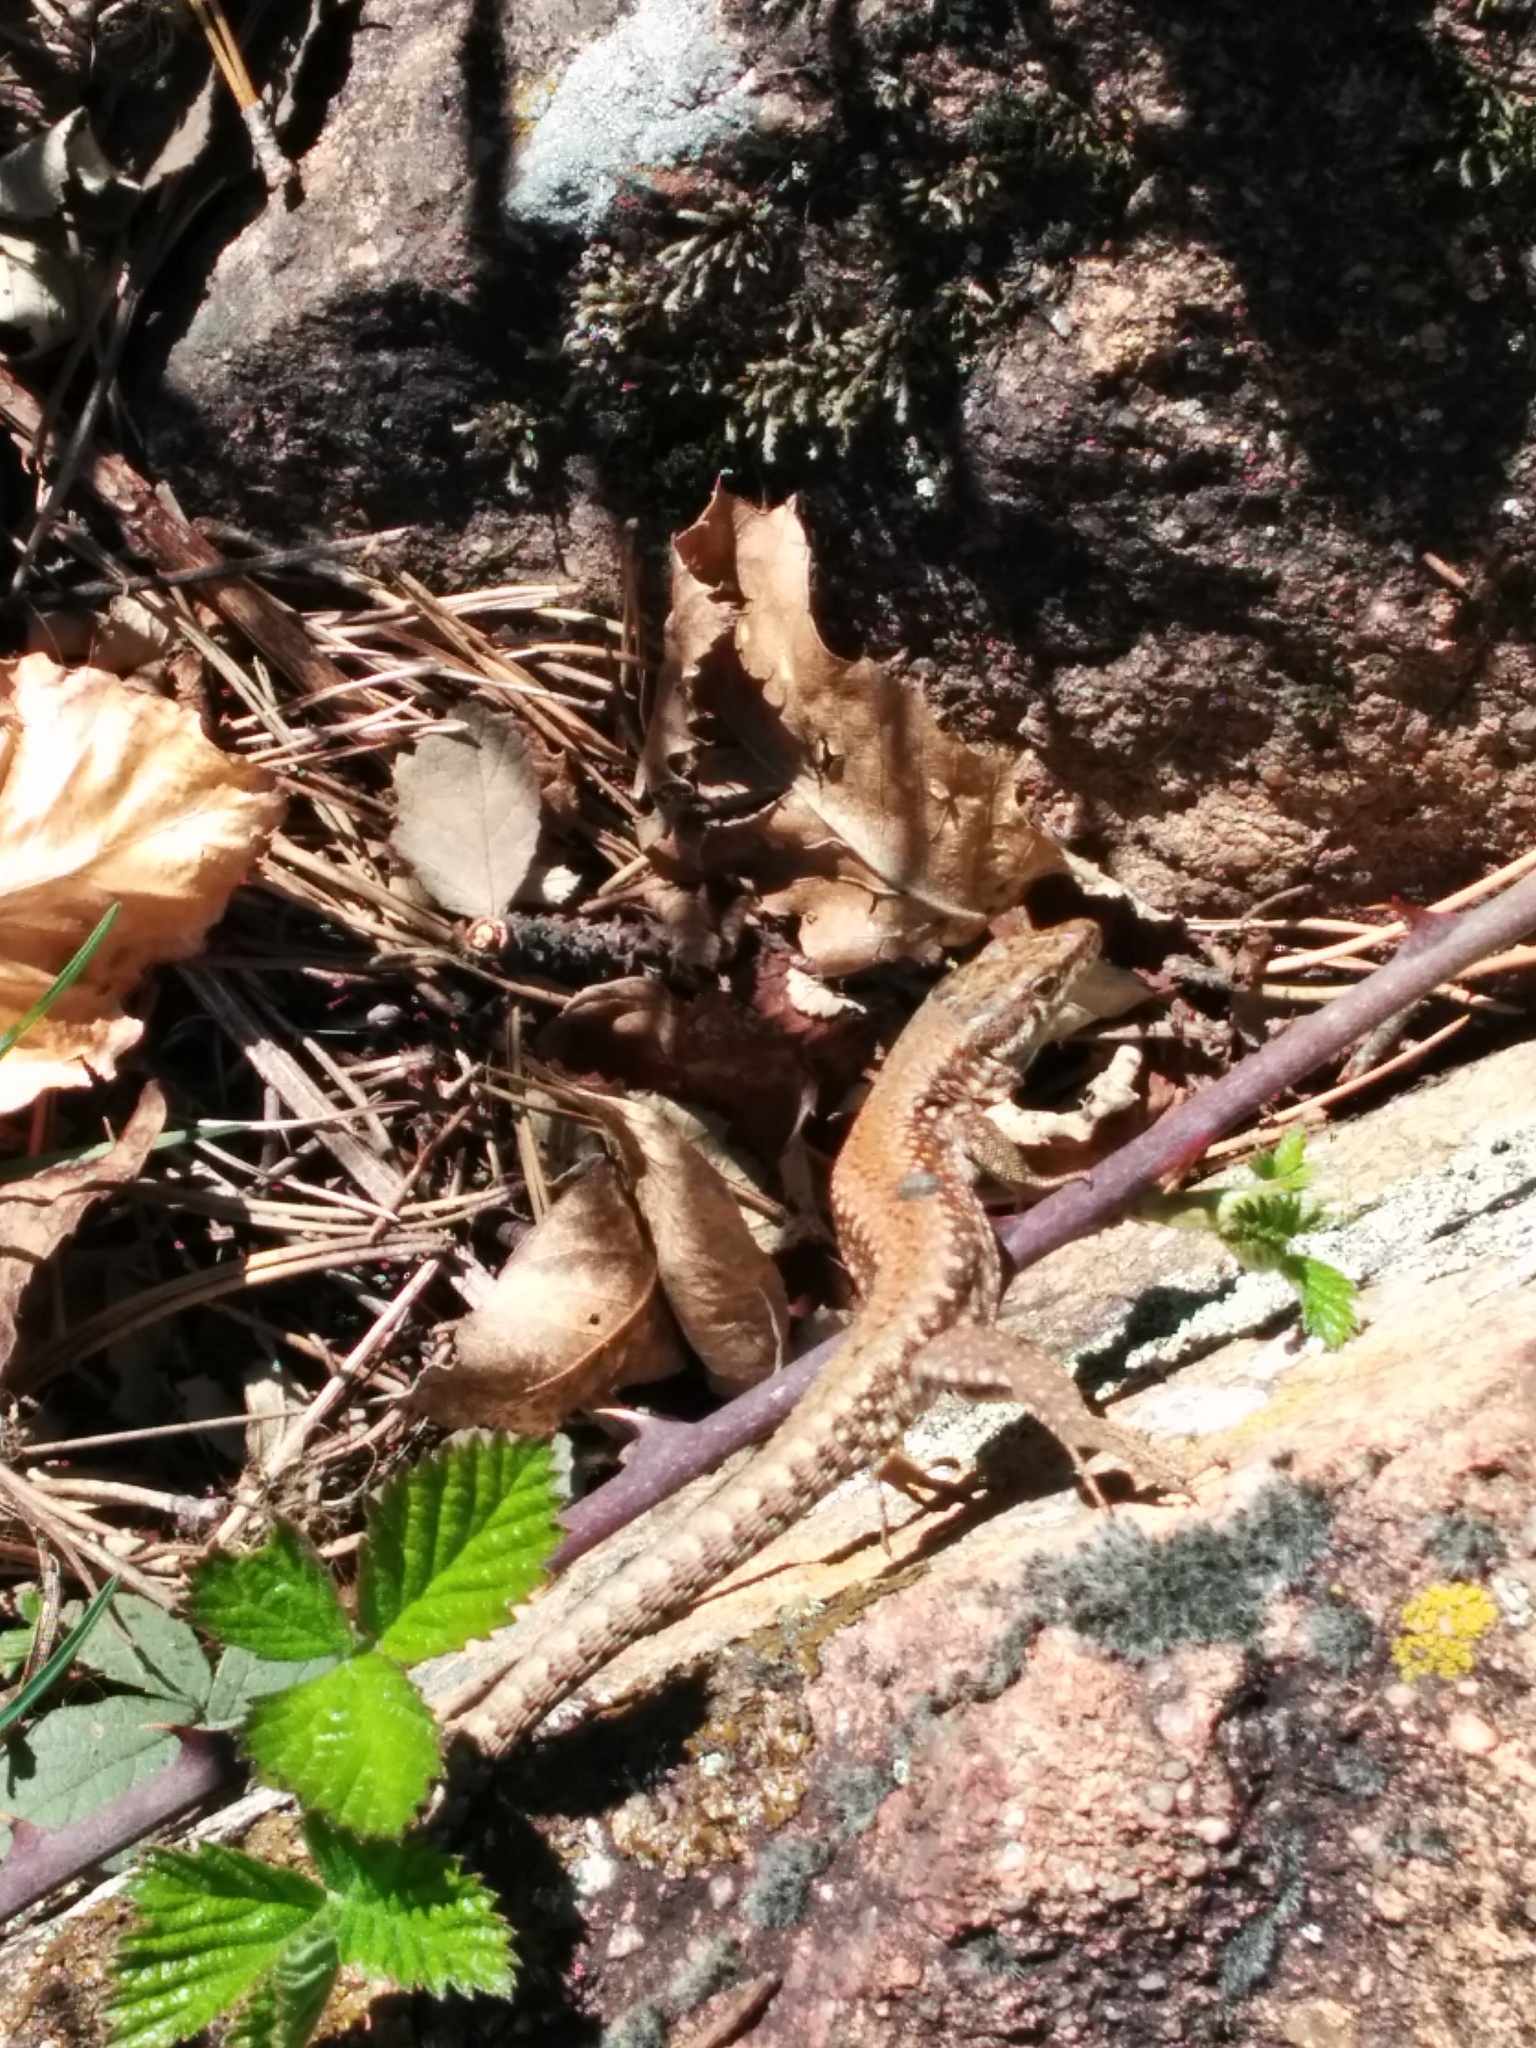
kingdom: Animalia
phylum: Chordata
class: Squamata
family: Lacertidae
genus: Podarcis
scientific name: Podarcis muralis
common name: Common wall lizard
